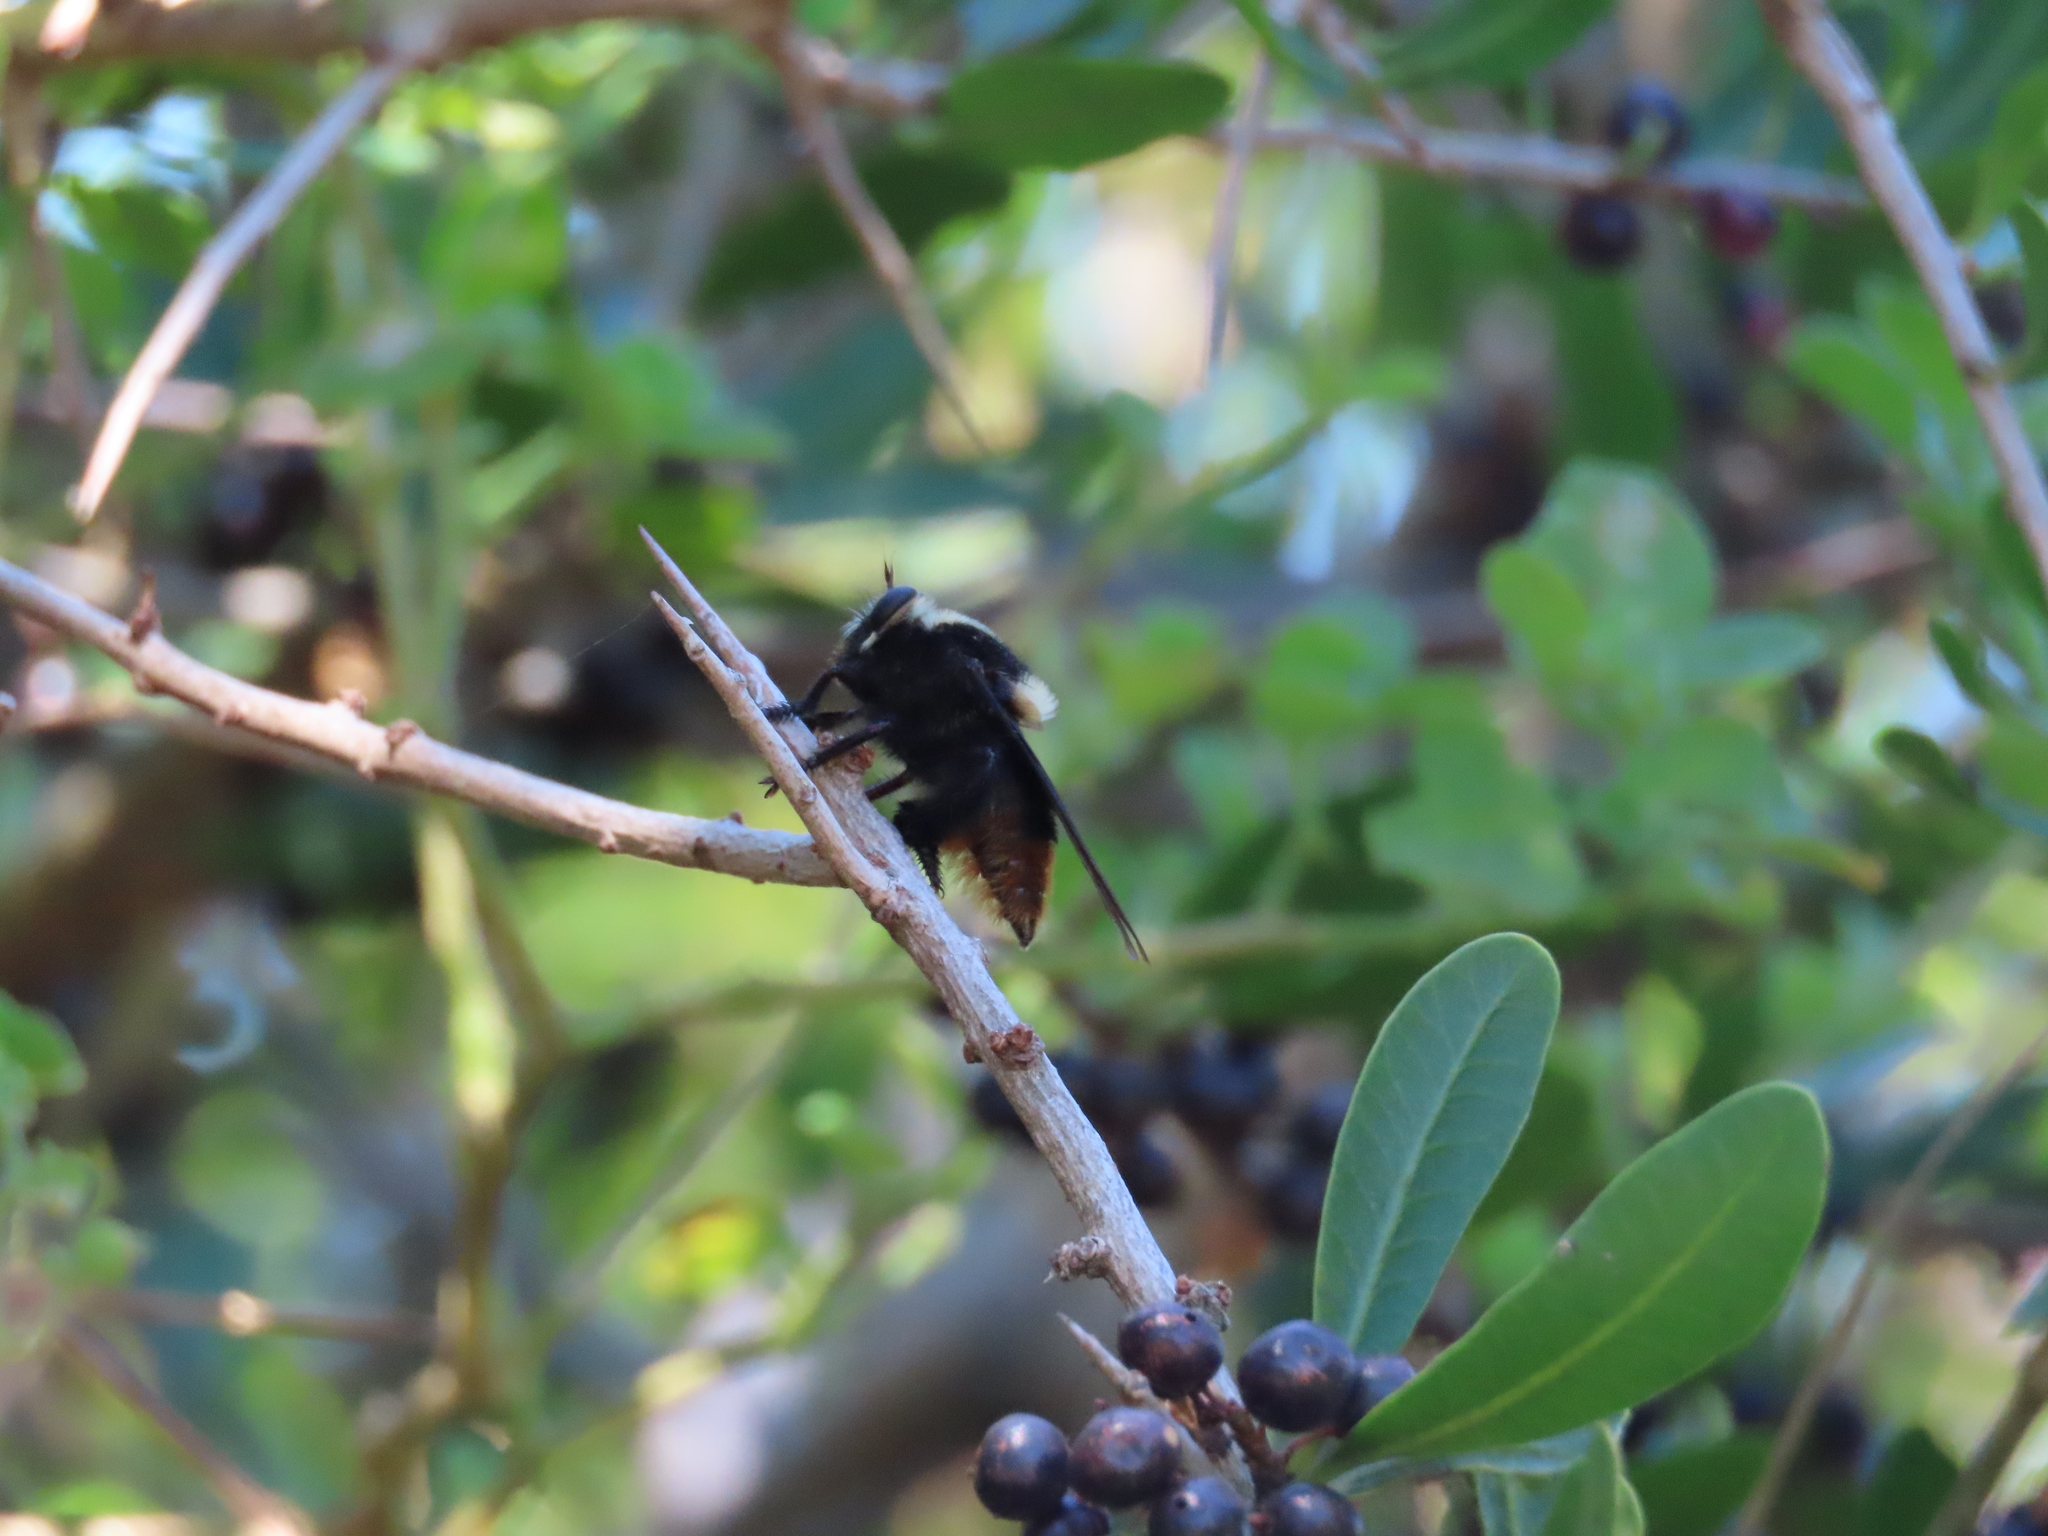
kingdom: Animalia
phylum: Arthropoda
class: Insecta
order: Diptera
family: Asilidae
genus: Mallophora
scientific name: Mallophora ruficauda
